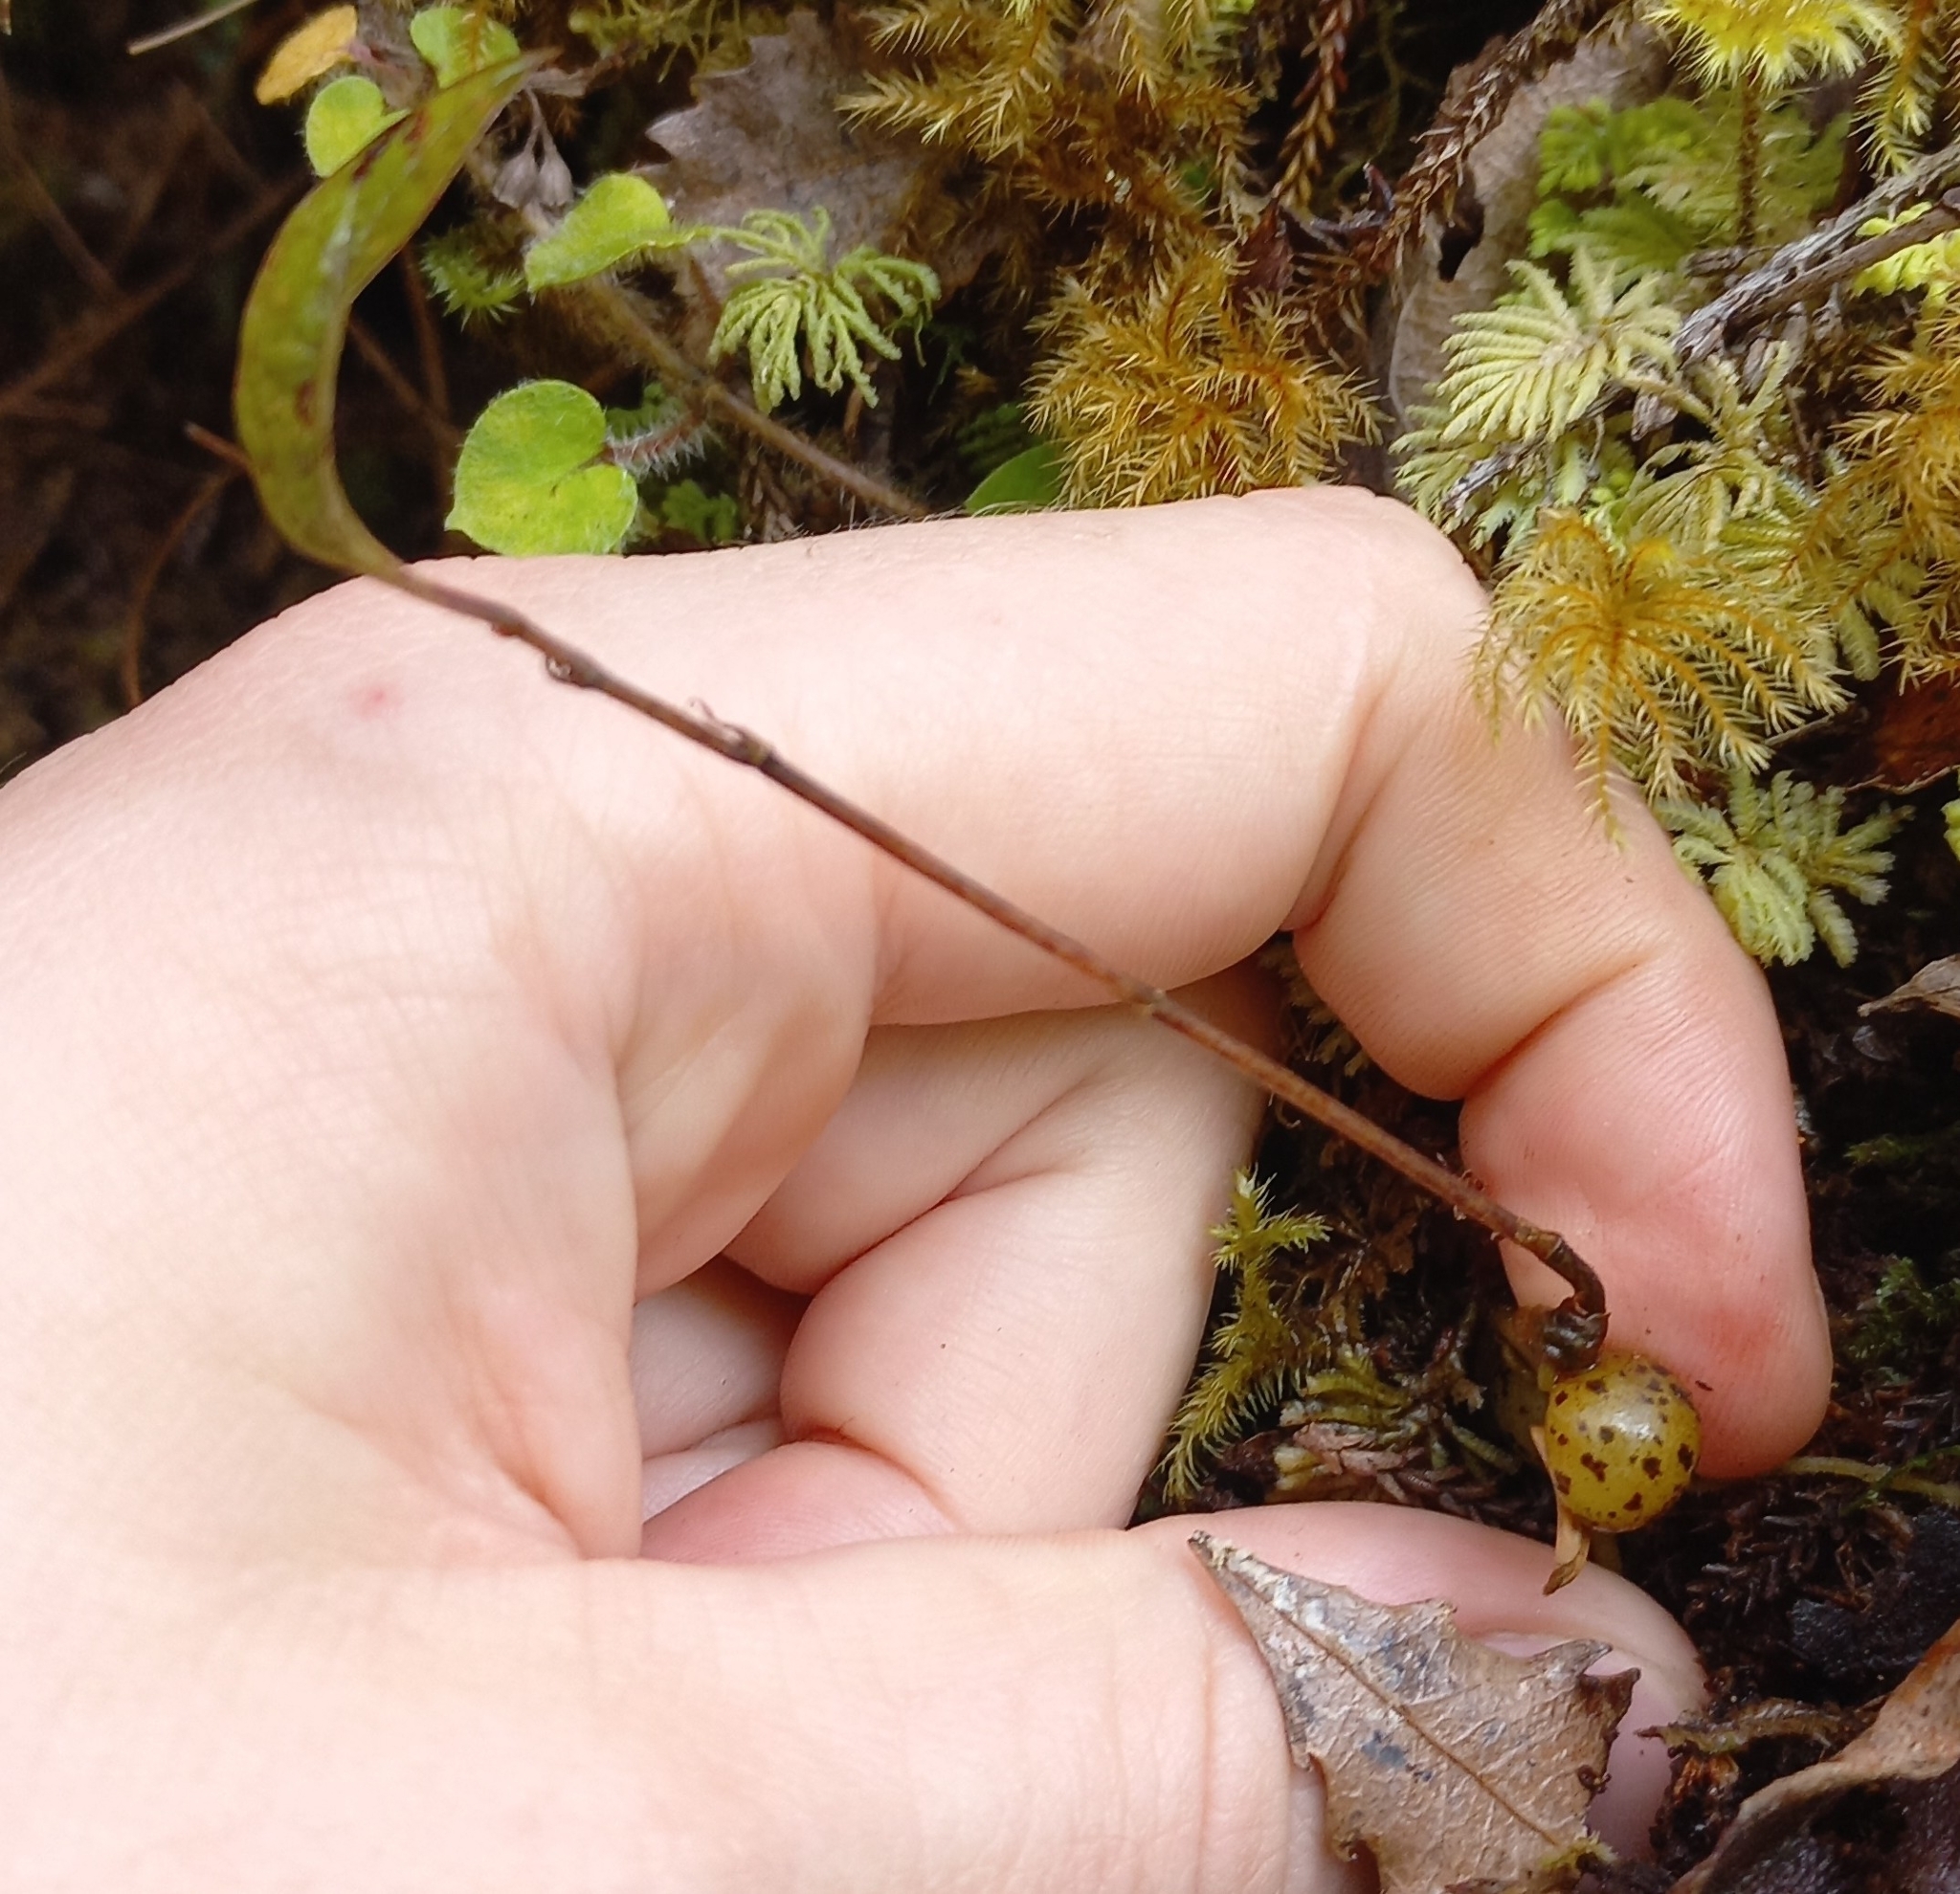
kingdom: Plantae
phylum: Tracheophyta
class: Liliopsida
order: Liliales
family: Ripogonaceae
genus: Ripogonum
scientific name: Ripogonum scandens
